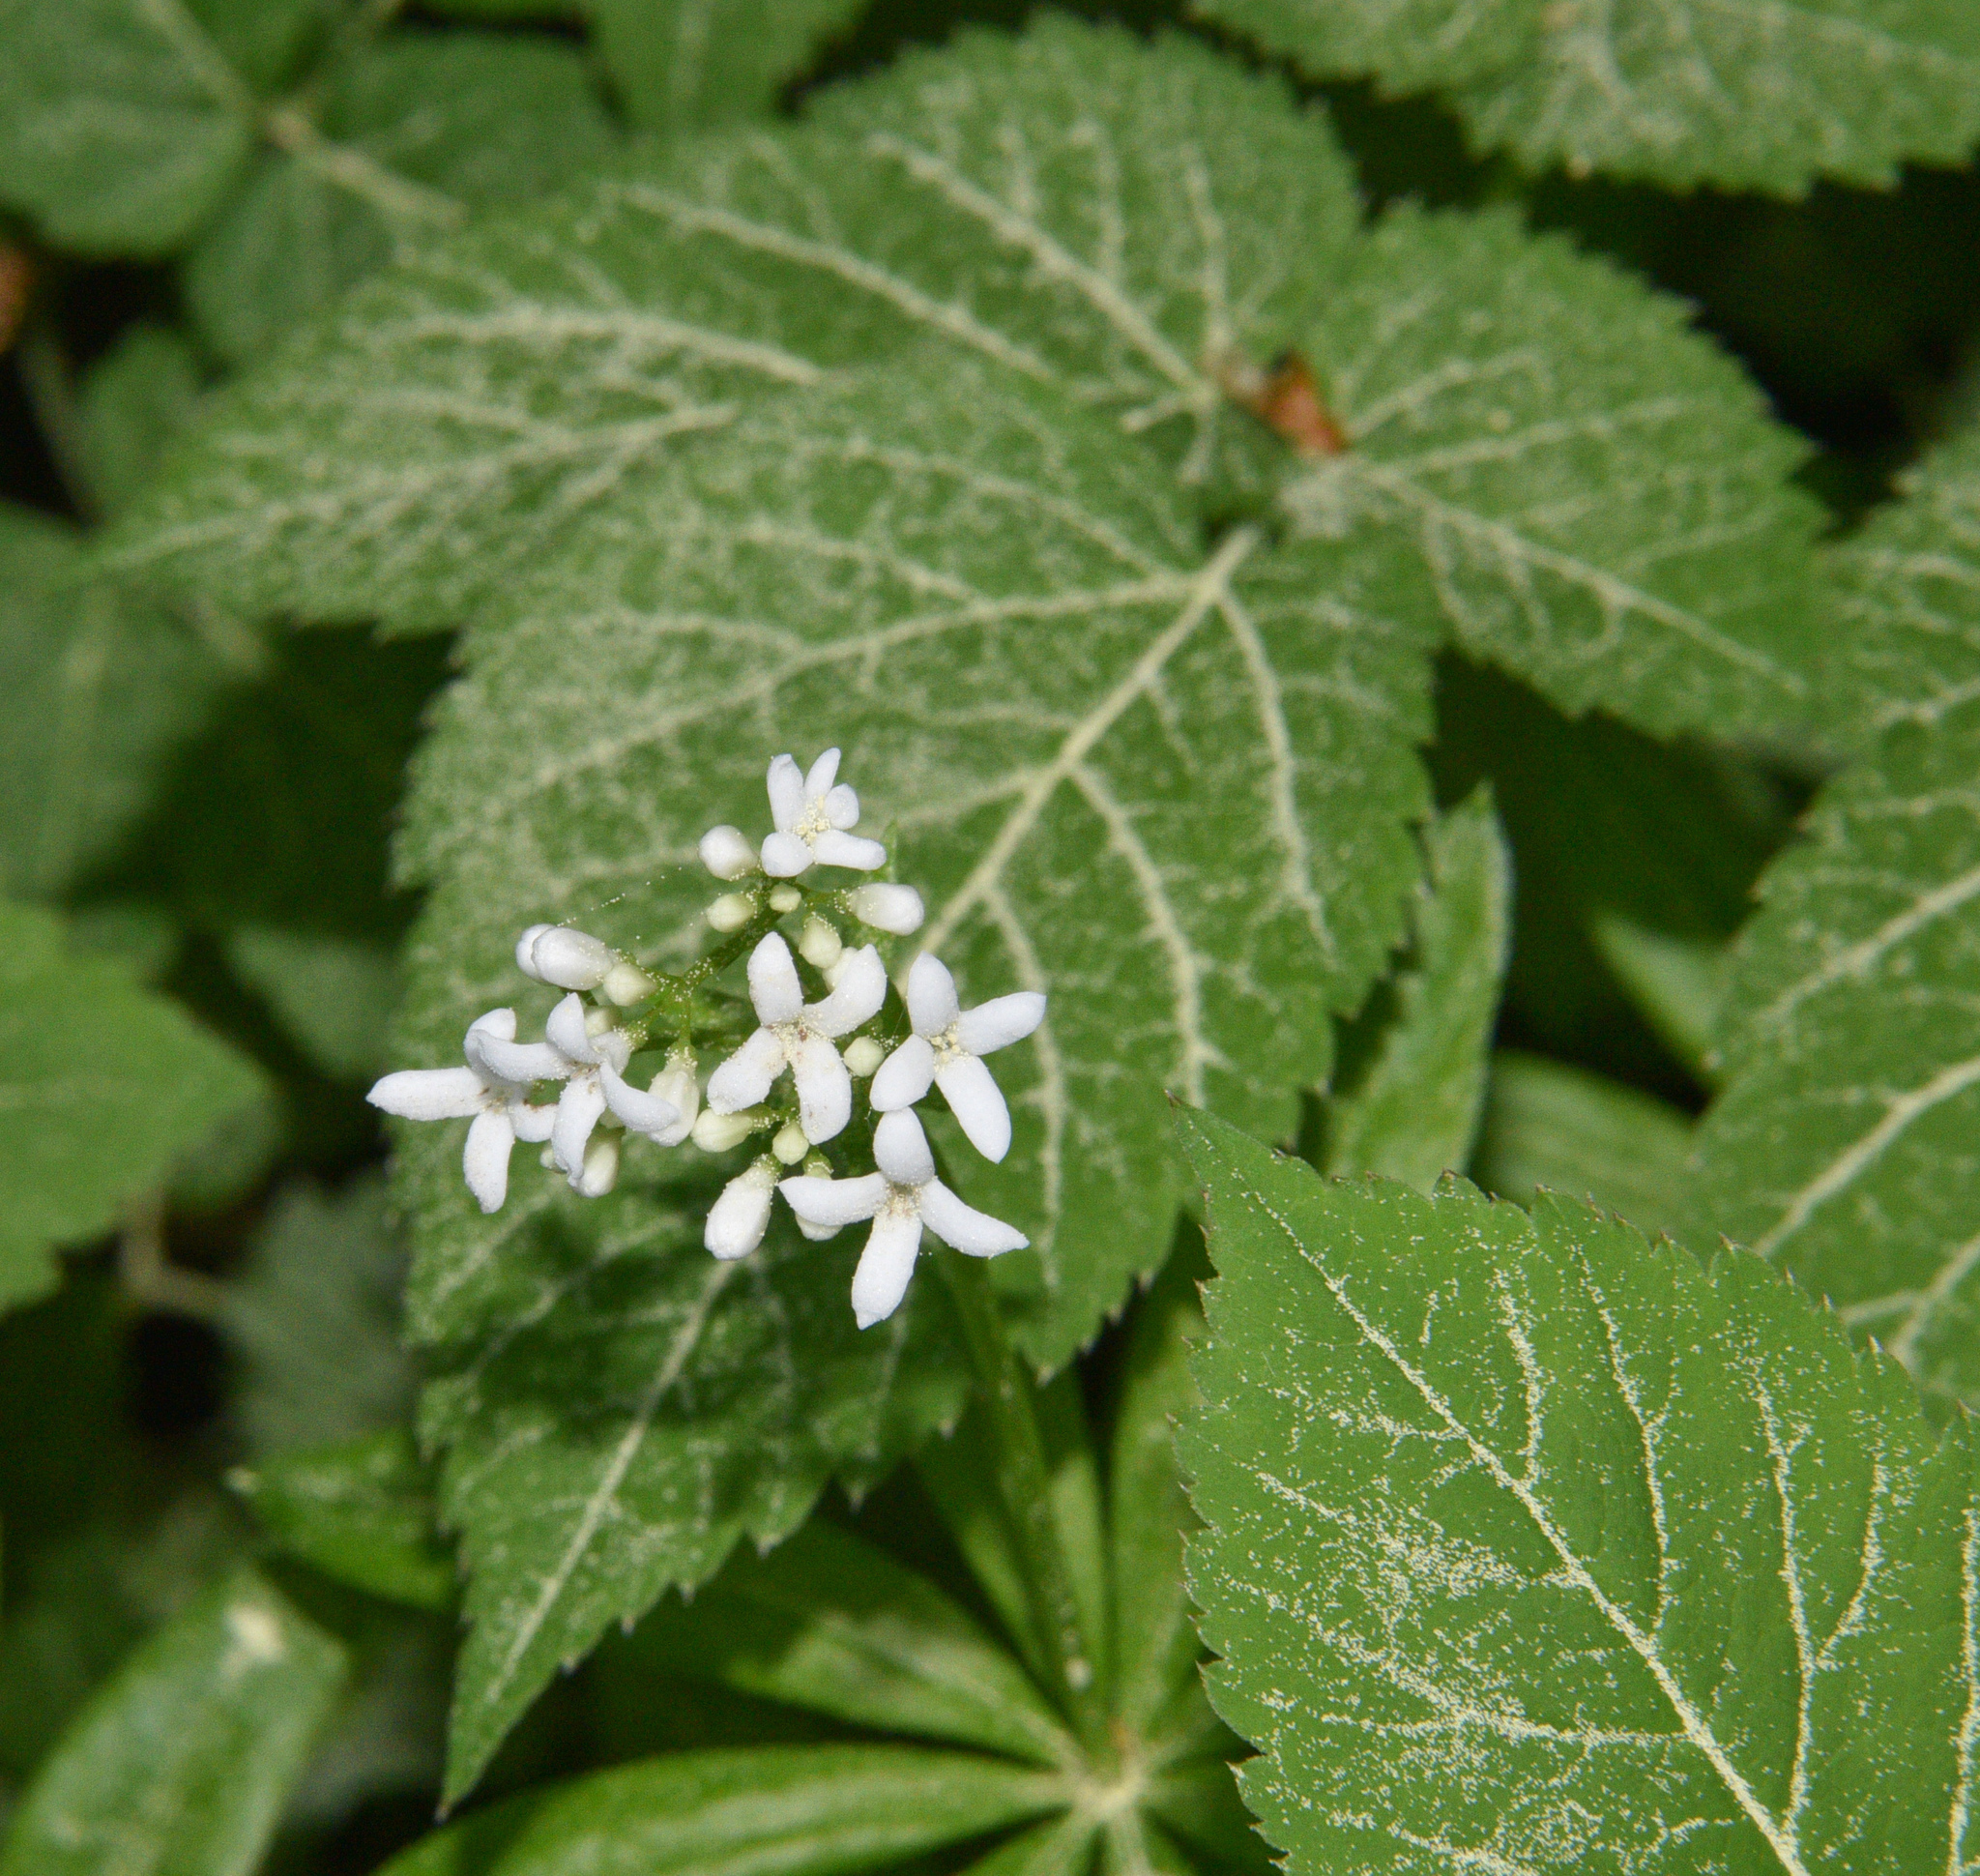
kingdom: Plantae
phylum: Tracheophyta
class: Magnoliopsida
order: Gentianales
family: Rubiaceae
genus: Galium
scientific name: Galium odoratum
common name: Sweet woodruff
